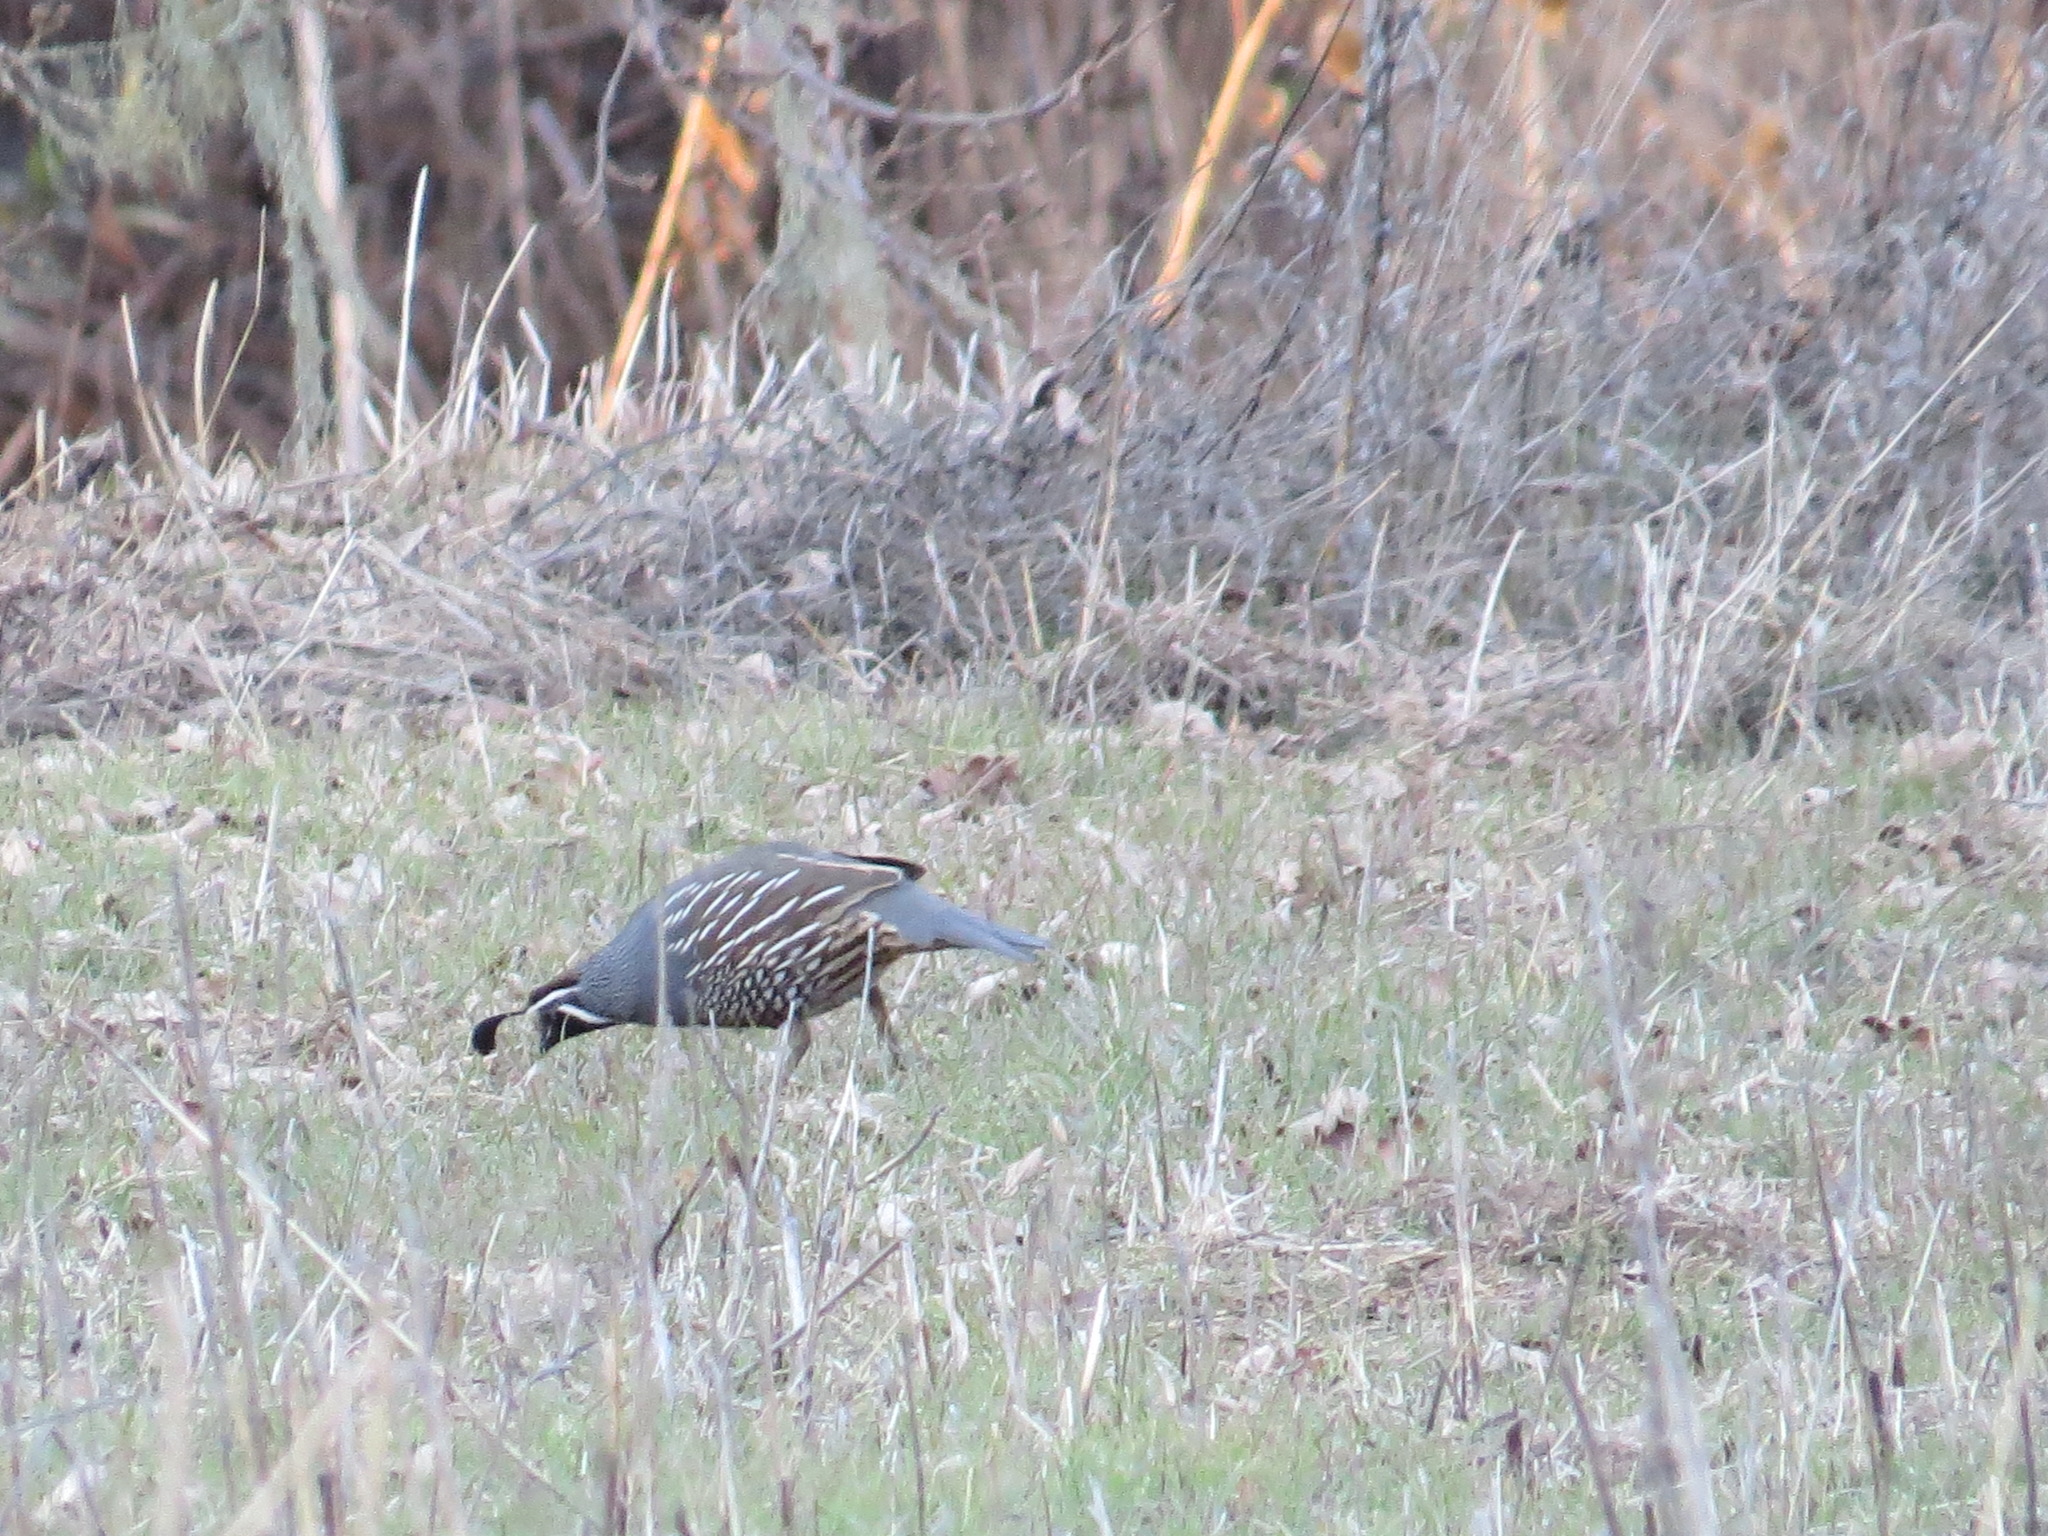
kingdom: Animalia
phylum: Chordata
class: Aves
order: Galliformes
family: Odontophoridae
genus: Callipepla
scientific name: Callipepla californica
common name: California quail
